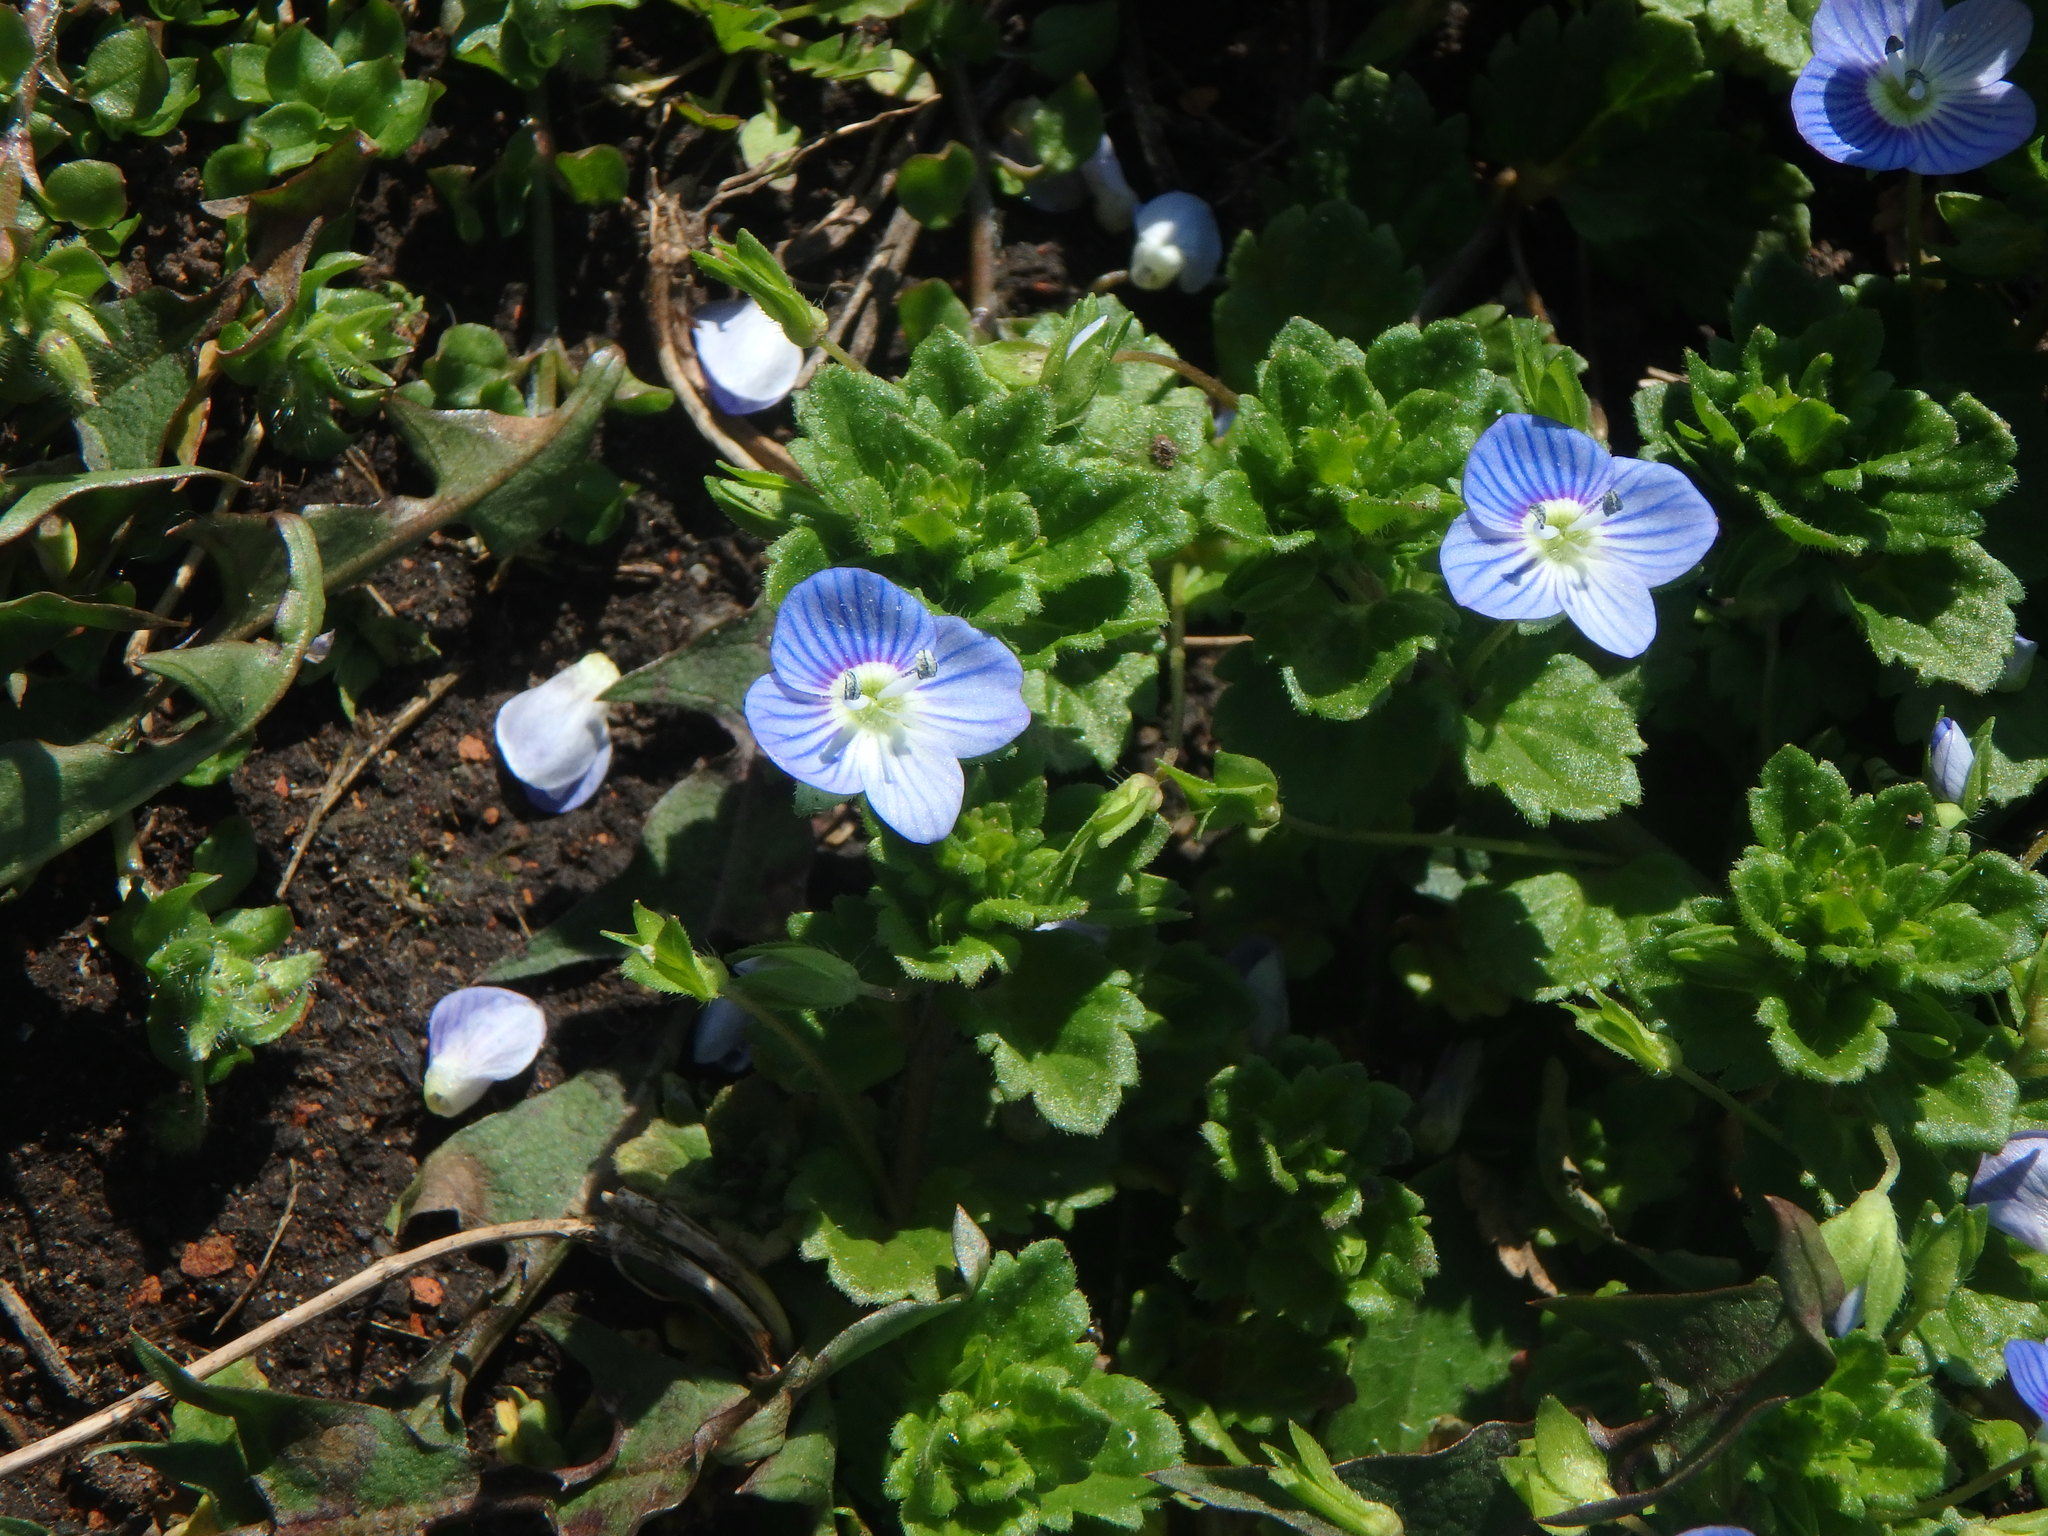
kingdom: Plantae
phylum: Tracheophyta
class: Magnoliopsida
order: Lamiales
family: Plantaginaceae
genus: Veronica
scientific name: Veronica persica
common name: Common field-speedwell
